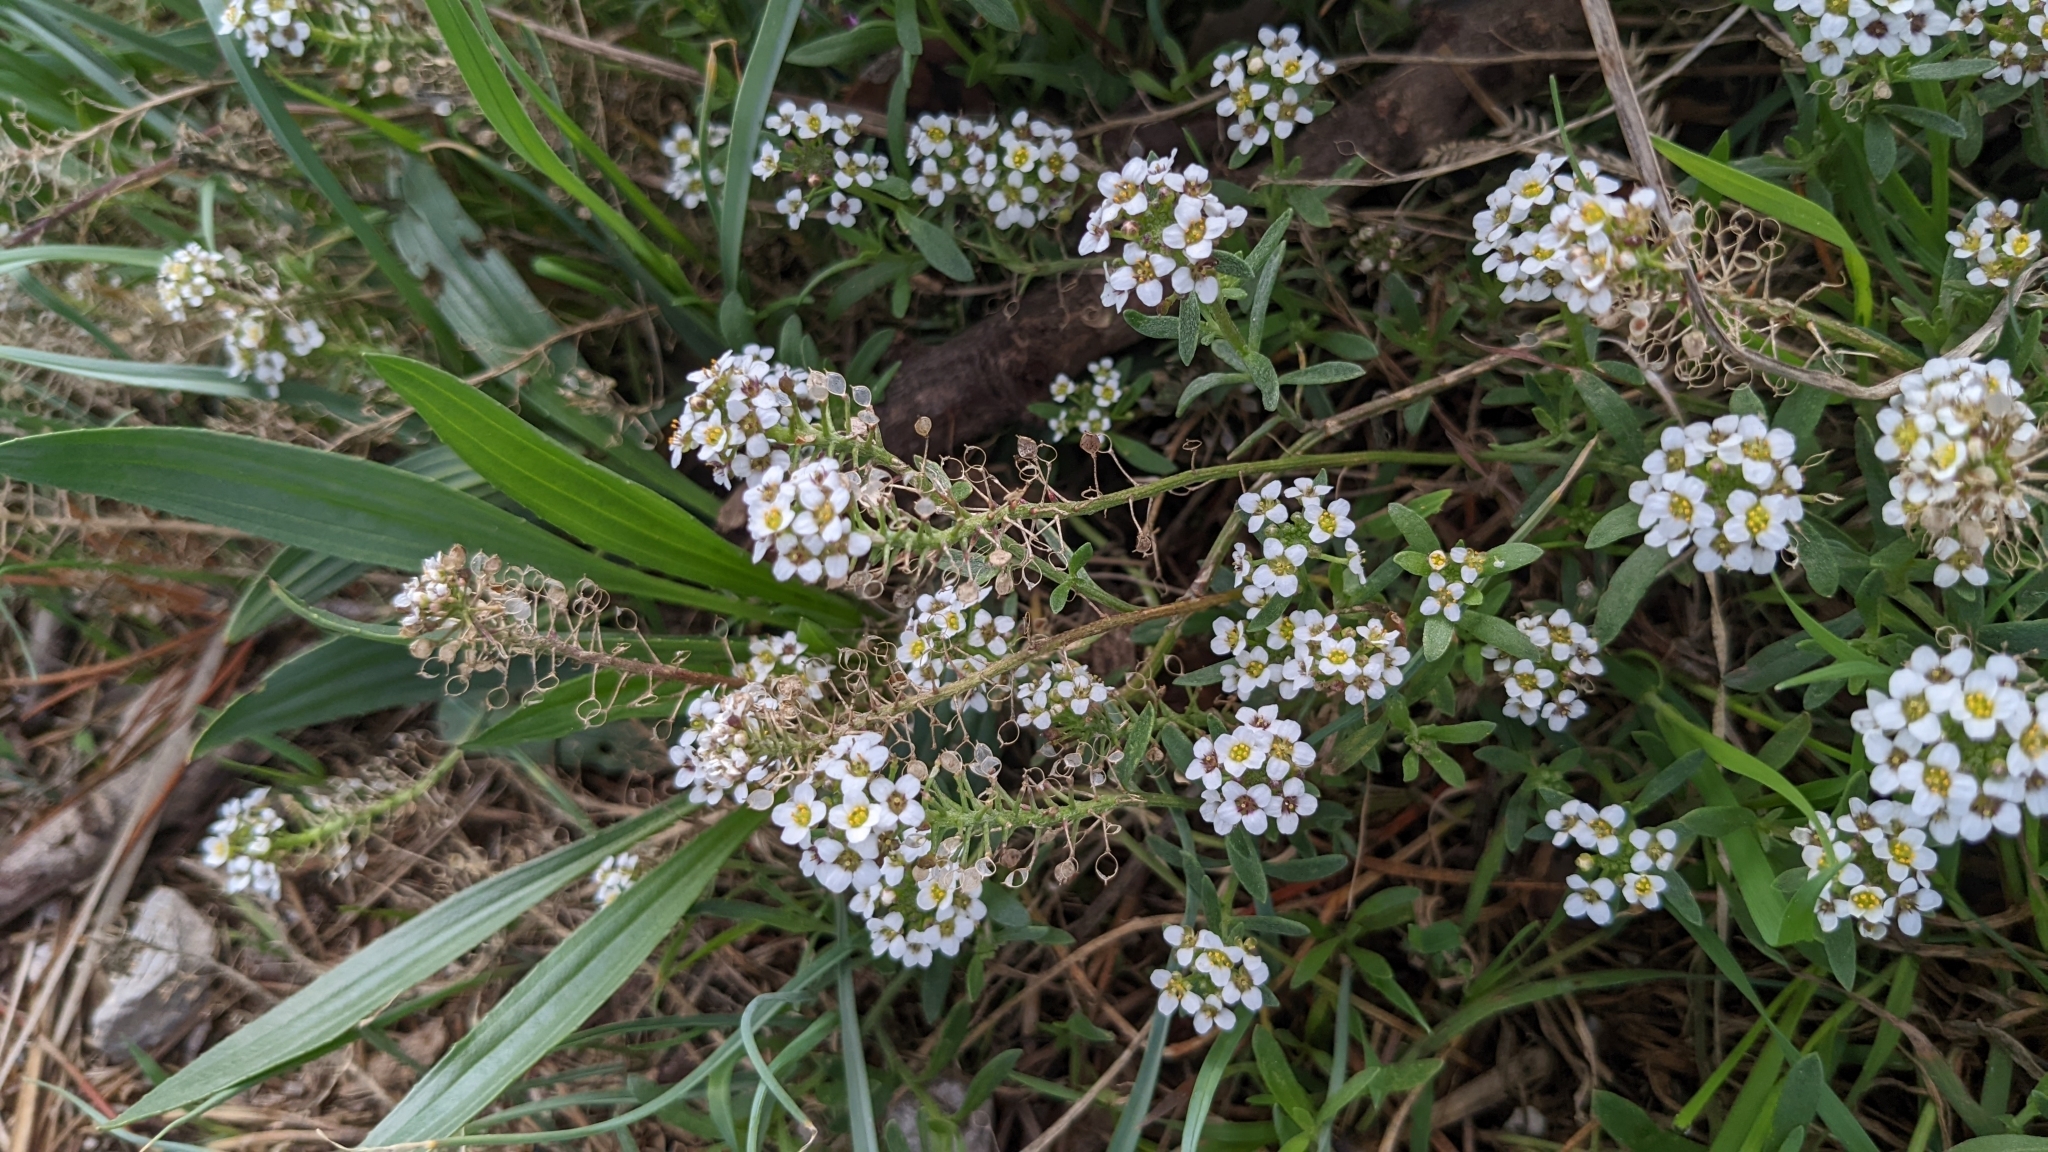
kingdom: Plantae
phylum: Tracheophyta
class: Magnoliopsida
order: Brassicales
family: Brassicaceae
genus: Lobularia
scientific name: Lobularia maritima
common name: Sweet alison
